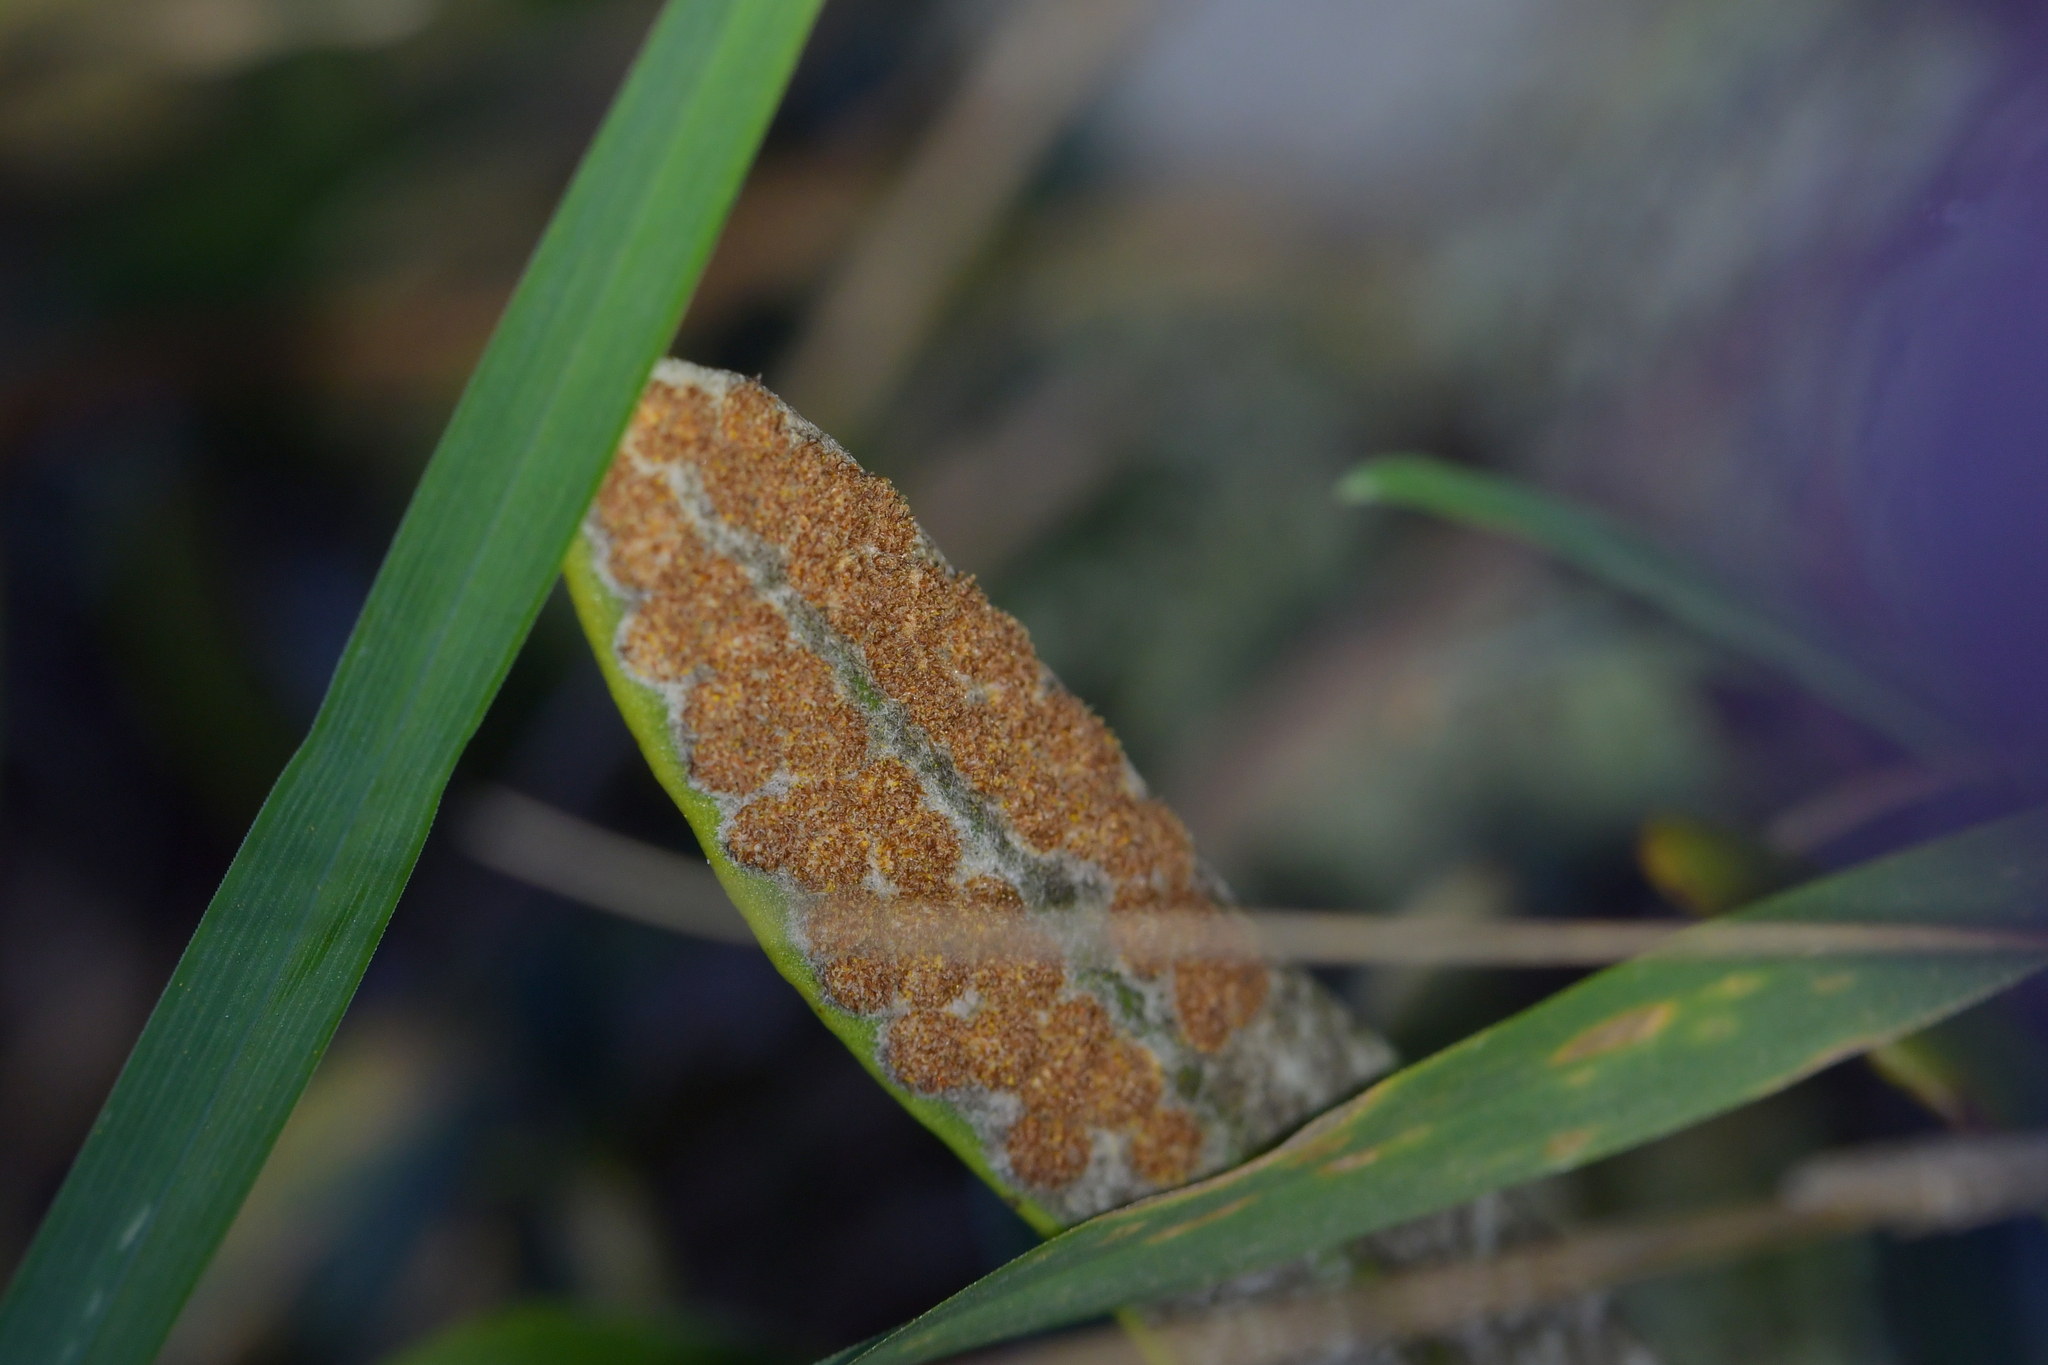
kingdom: Plantae
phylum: Tracheophyta
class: Polypodiopsida
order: Polypodiales
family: Polypodiaceae
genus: Pyrrosia
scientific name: Pyrrosia eleagnifolia
